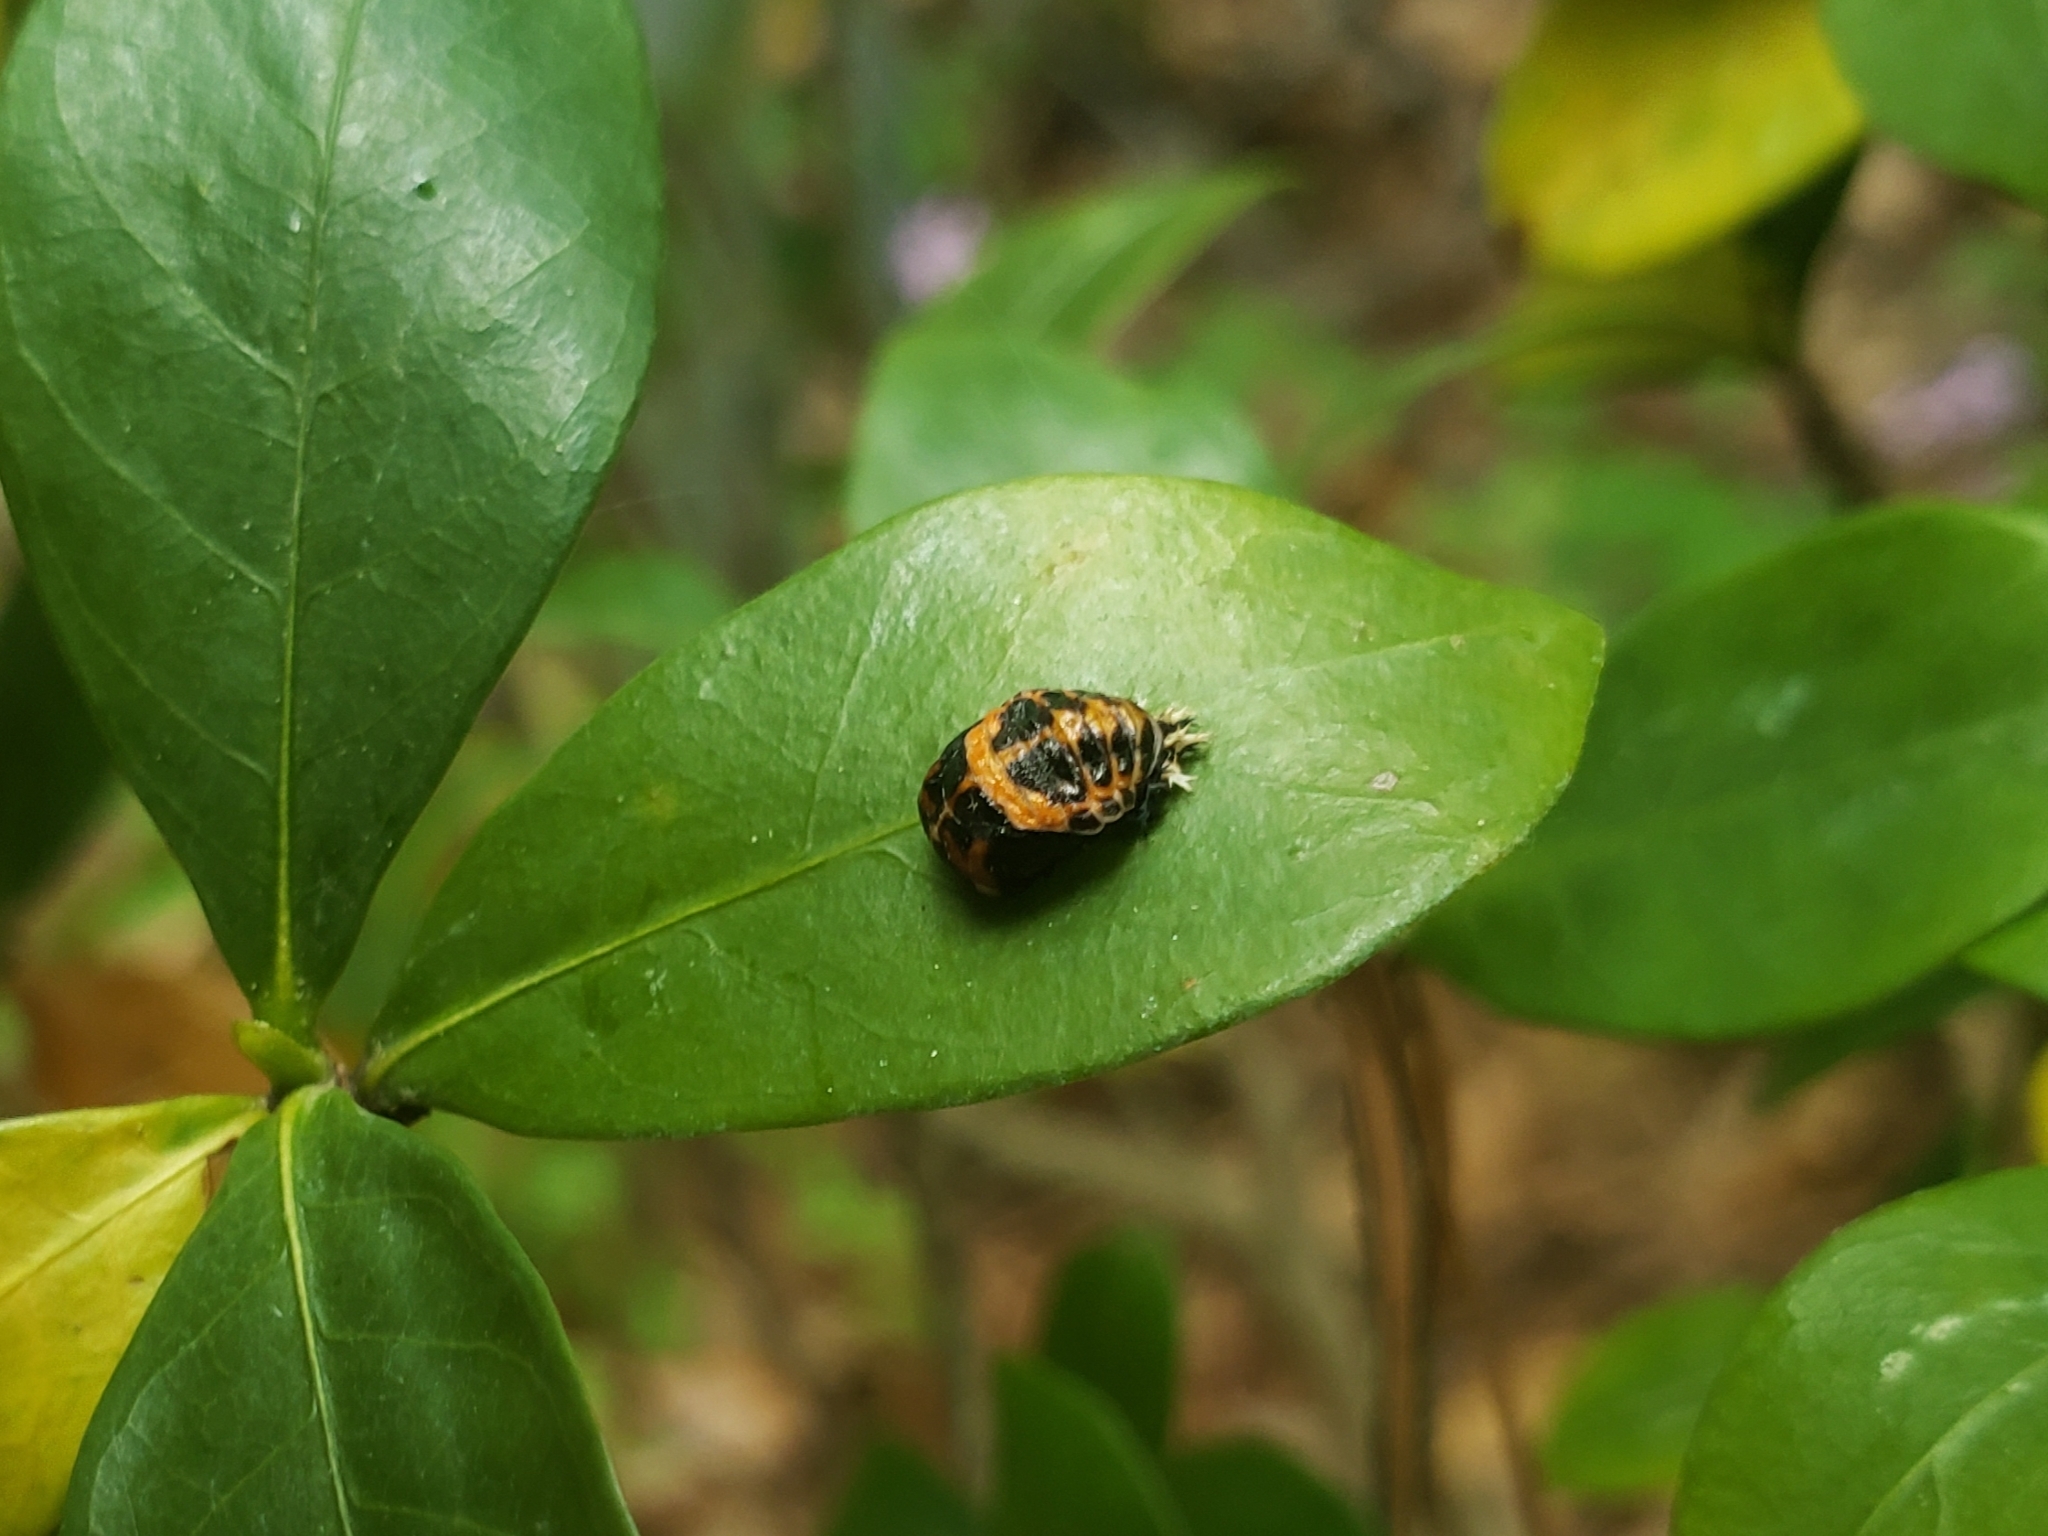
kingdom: Animalia
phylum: Arthropoda
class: Insecta
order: Coleoptera
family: Coccinellidae
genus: Harmonia
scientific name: Harmonia axyridis
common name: Harlequin ladybird
